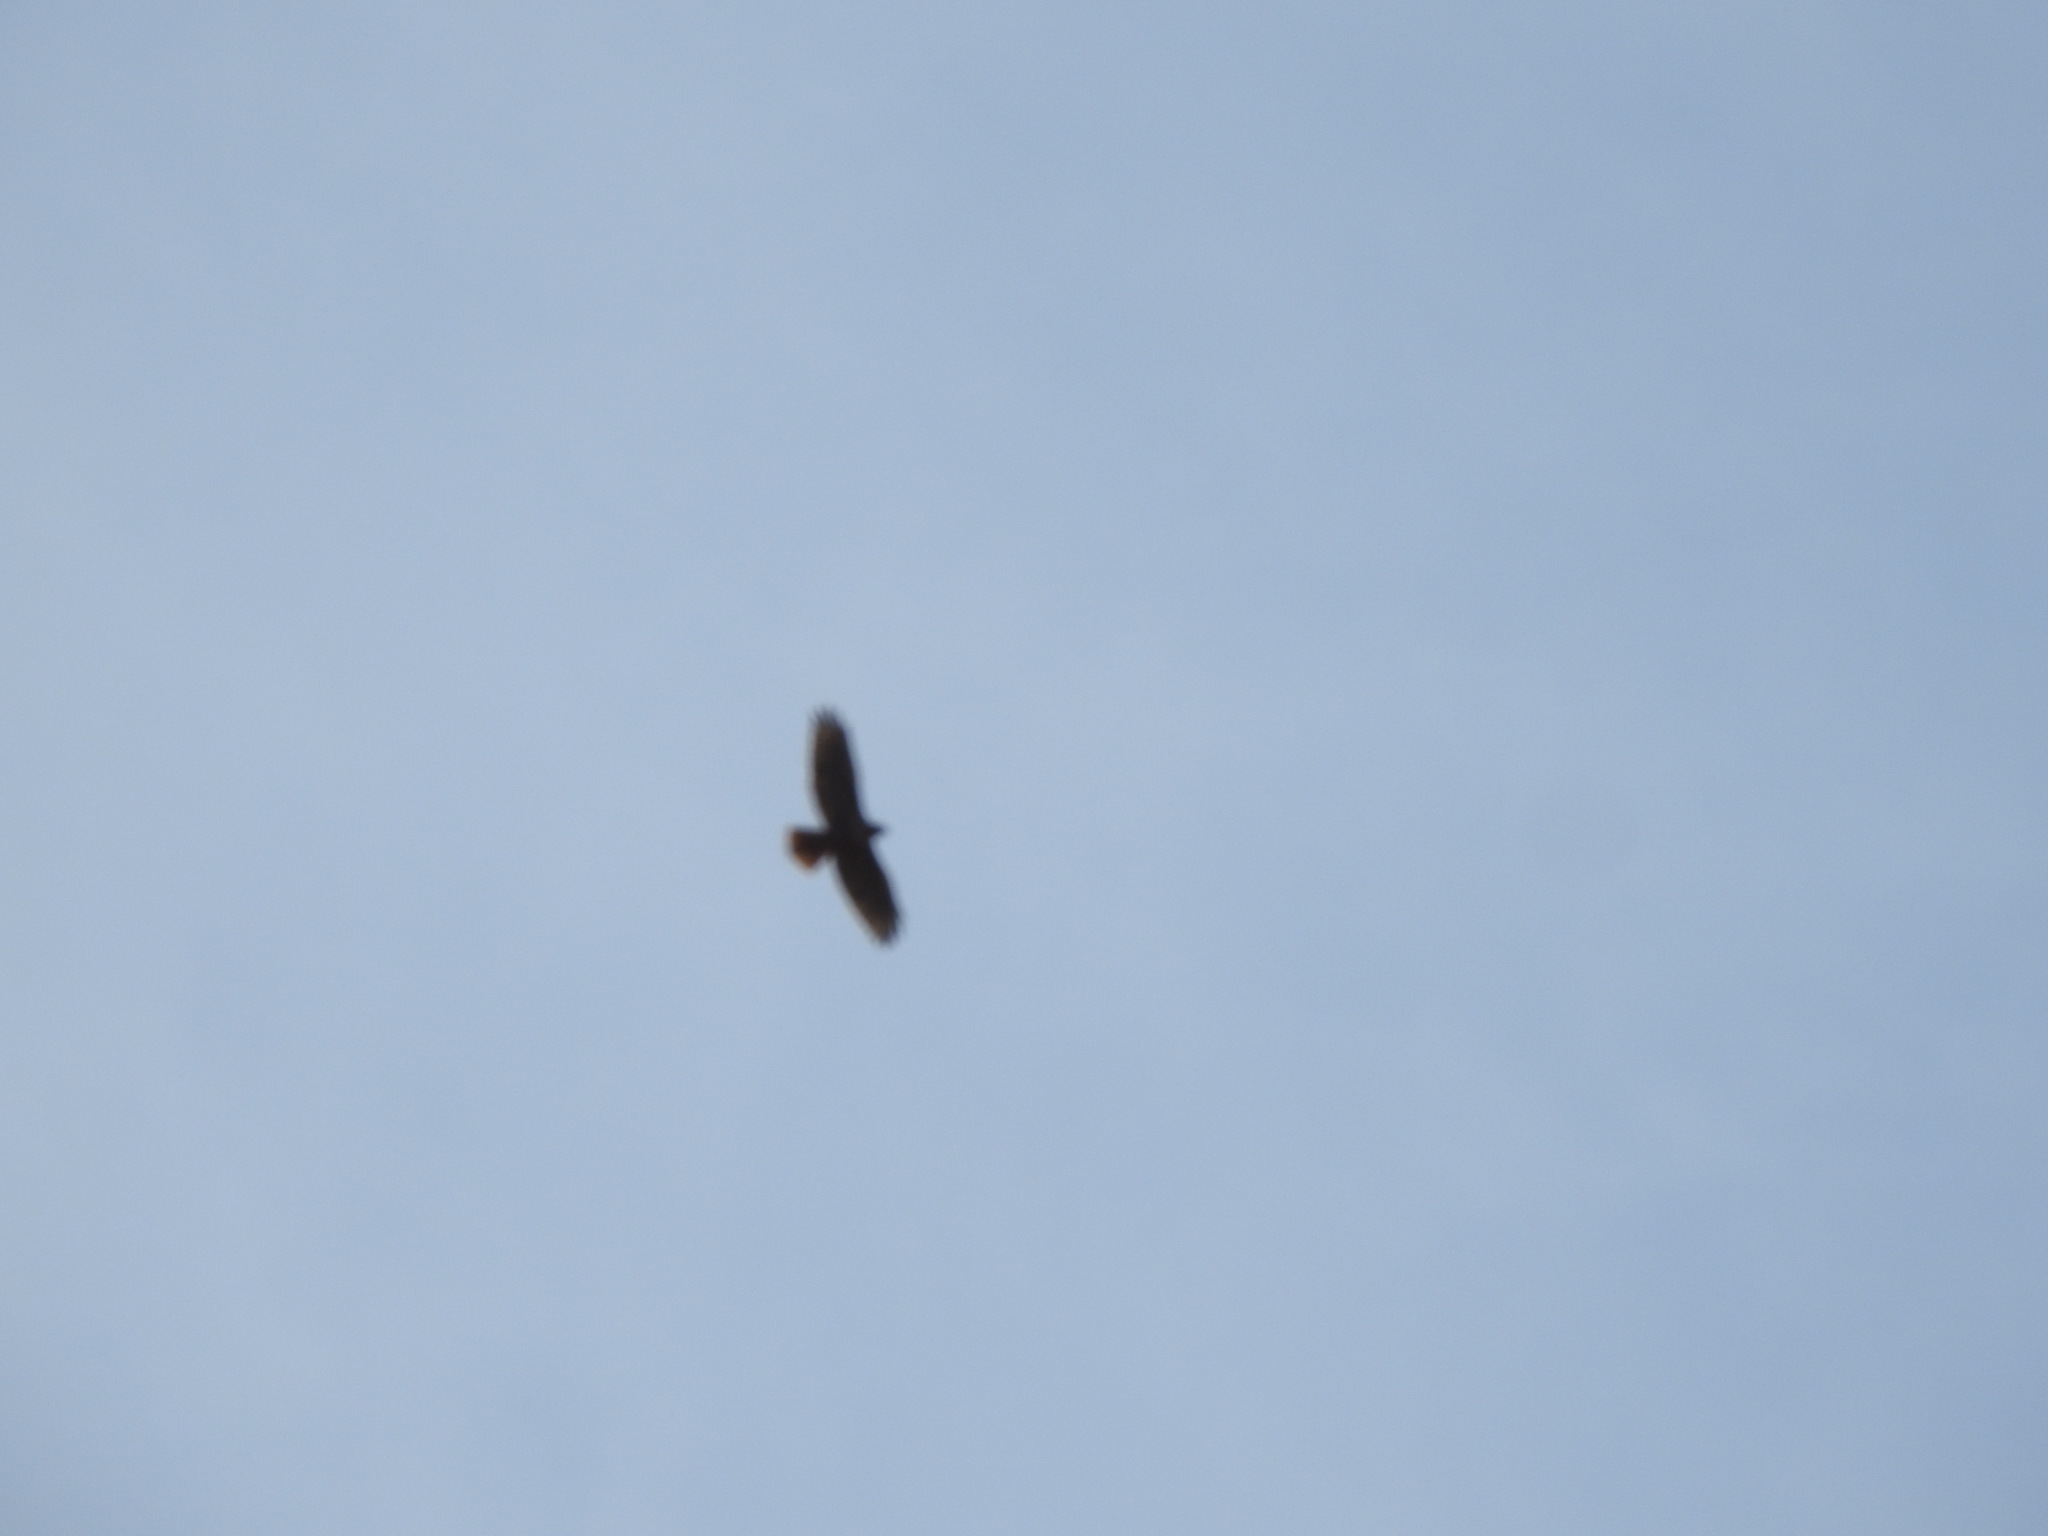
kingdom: Animalia
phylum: Chordata
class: Aves
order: Accipitriformes
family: Accipitridae
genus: Buteo
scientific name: Buteo jamaicensis
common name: Red-tailed hawk
